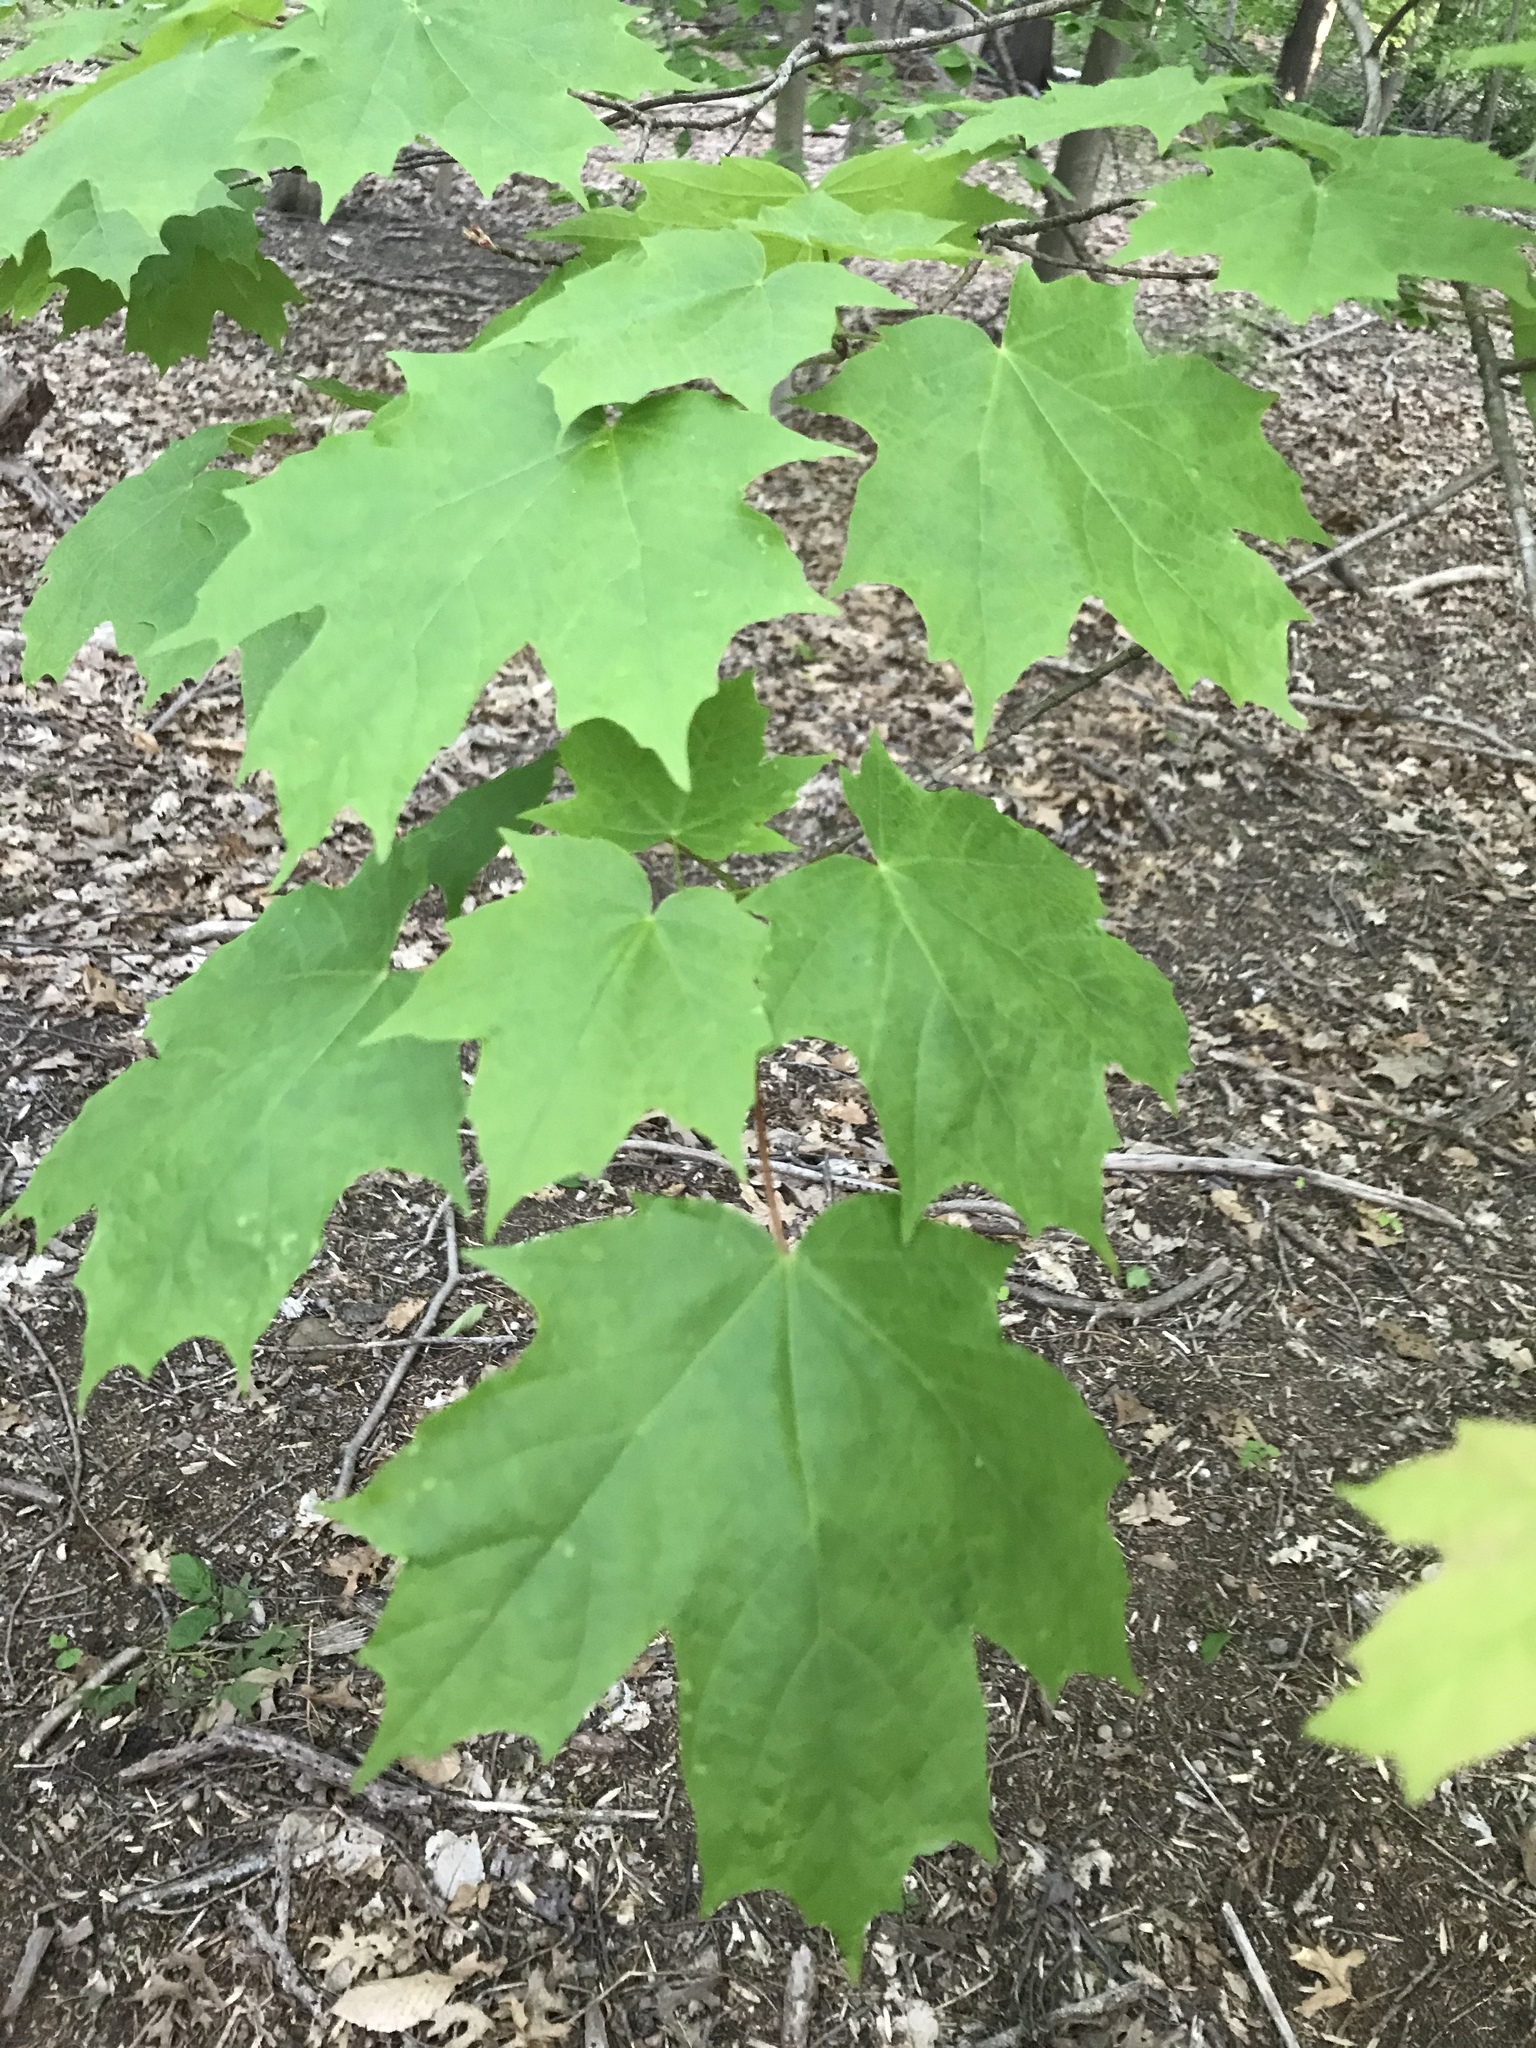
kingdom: Plantae
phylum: Tracheophyta
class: Magnoliopsida
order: Sapindales
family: Sapindaceae
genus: Acer
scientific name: Acer saccharum
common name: Sugar maple
